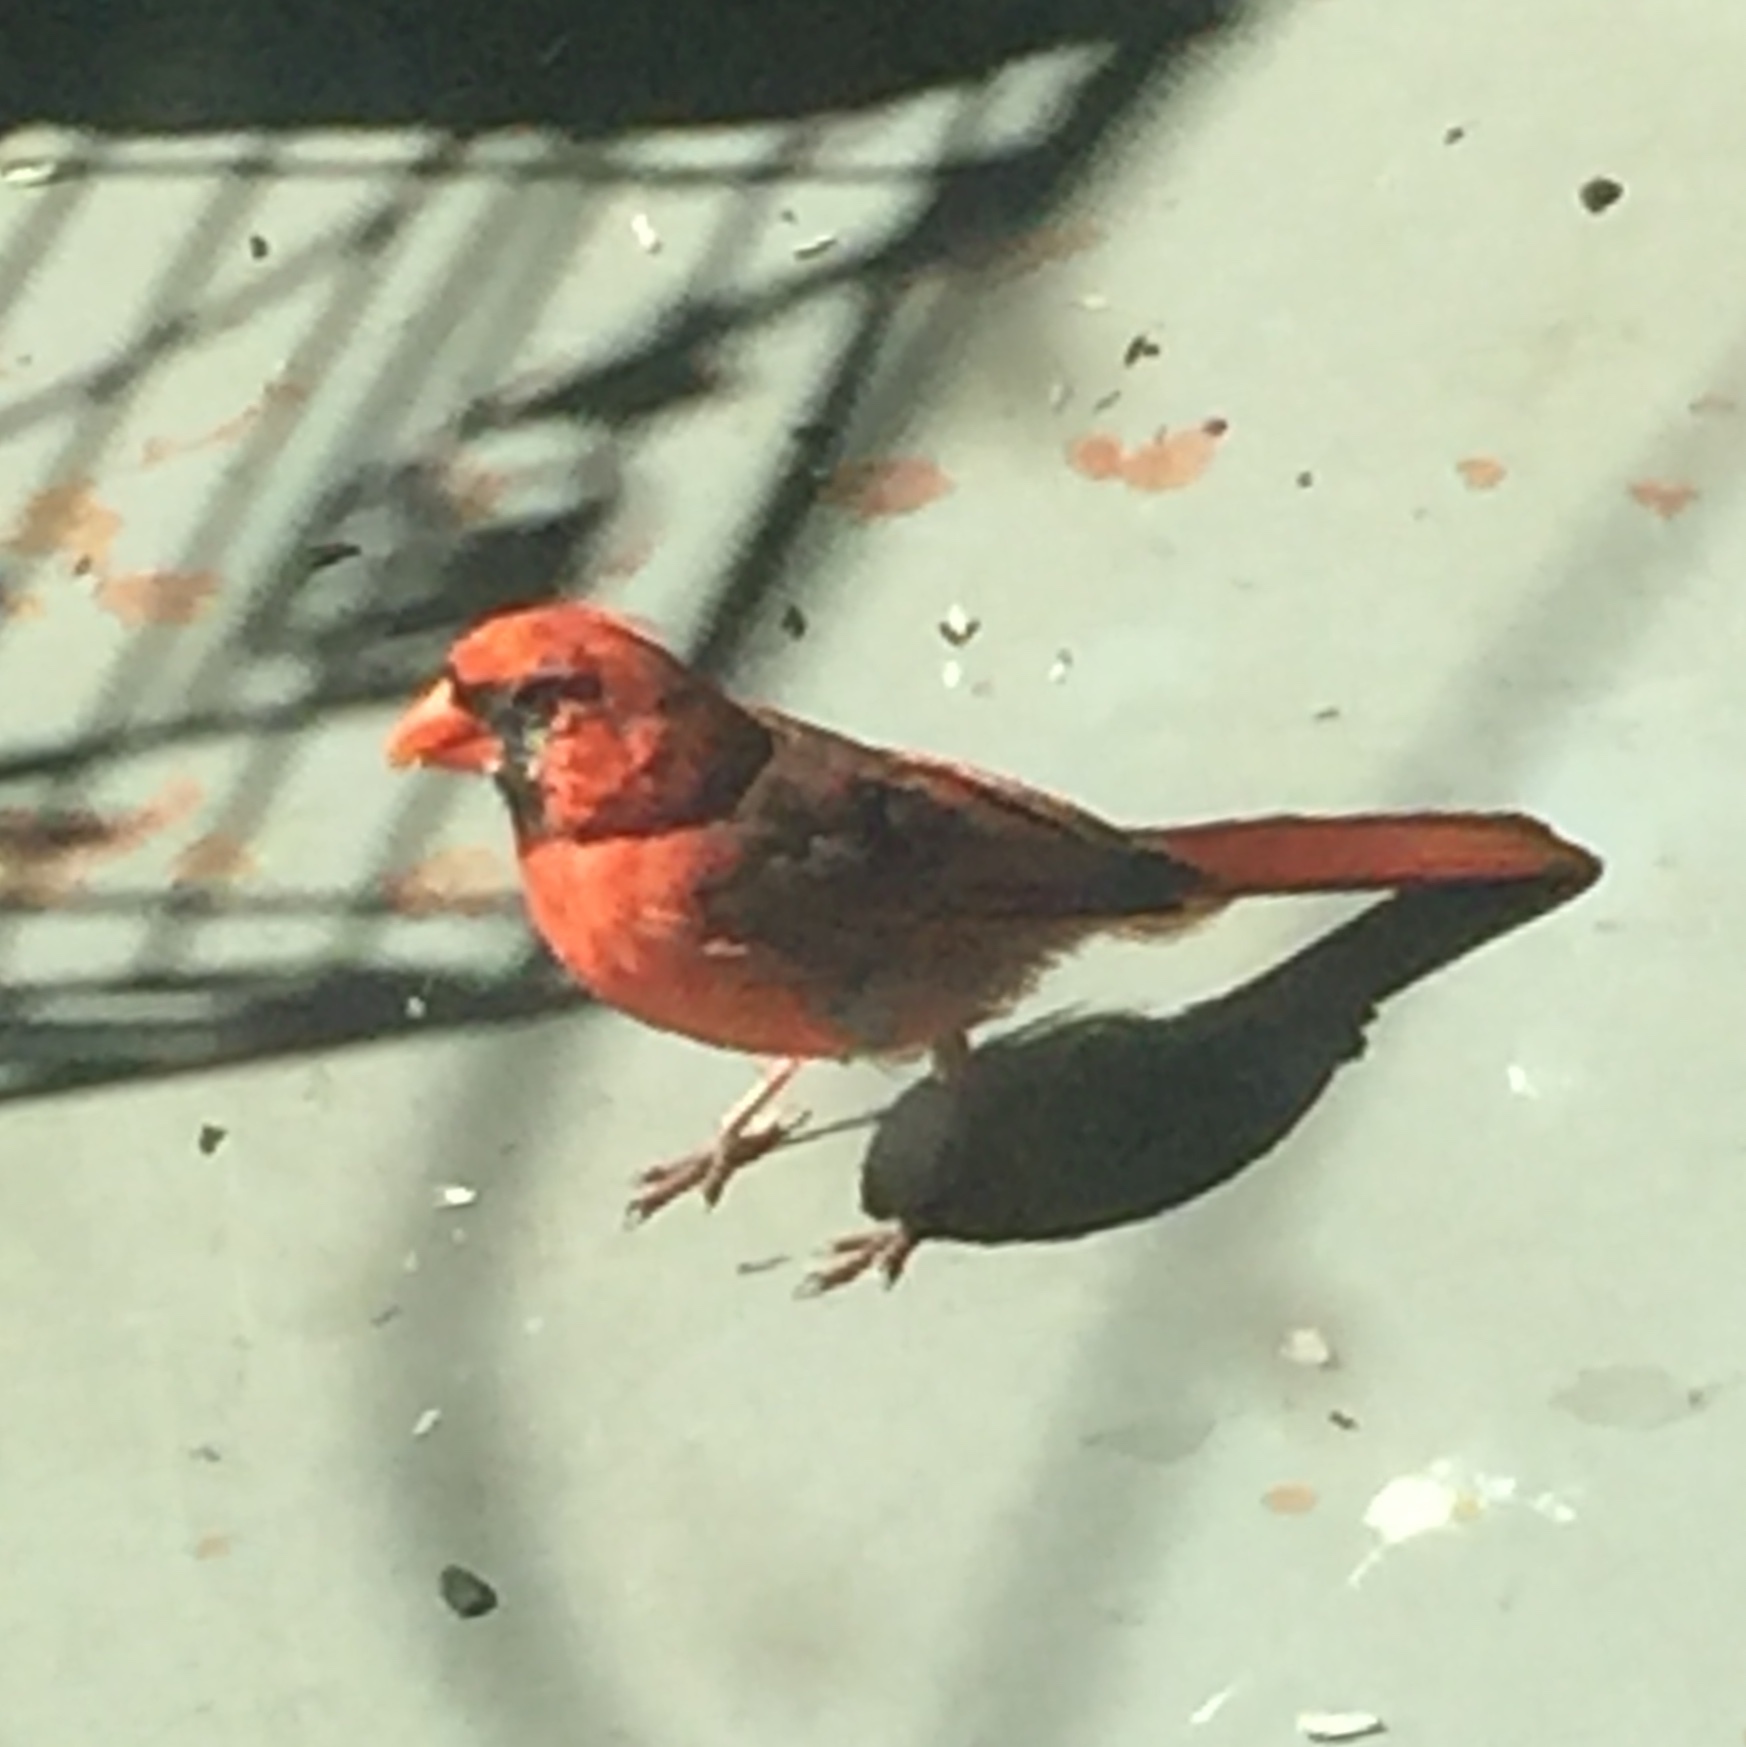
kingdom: Animalia
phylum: Chordata
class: Aves
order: Passeriformes
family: Cardinalidae
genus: Cardinalis
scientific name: Cardinalis cardinalis
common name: Northern cardinal
